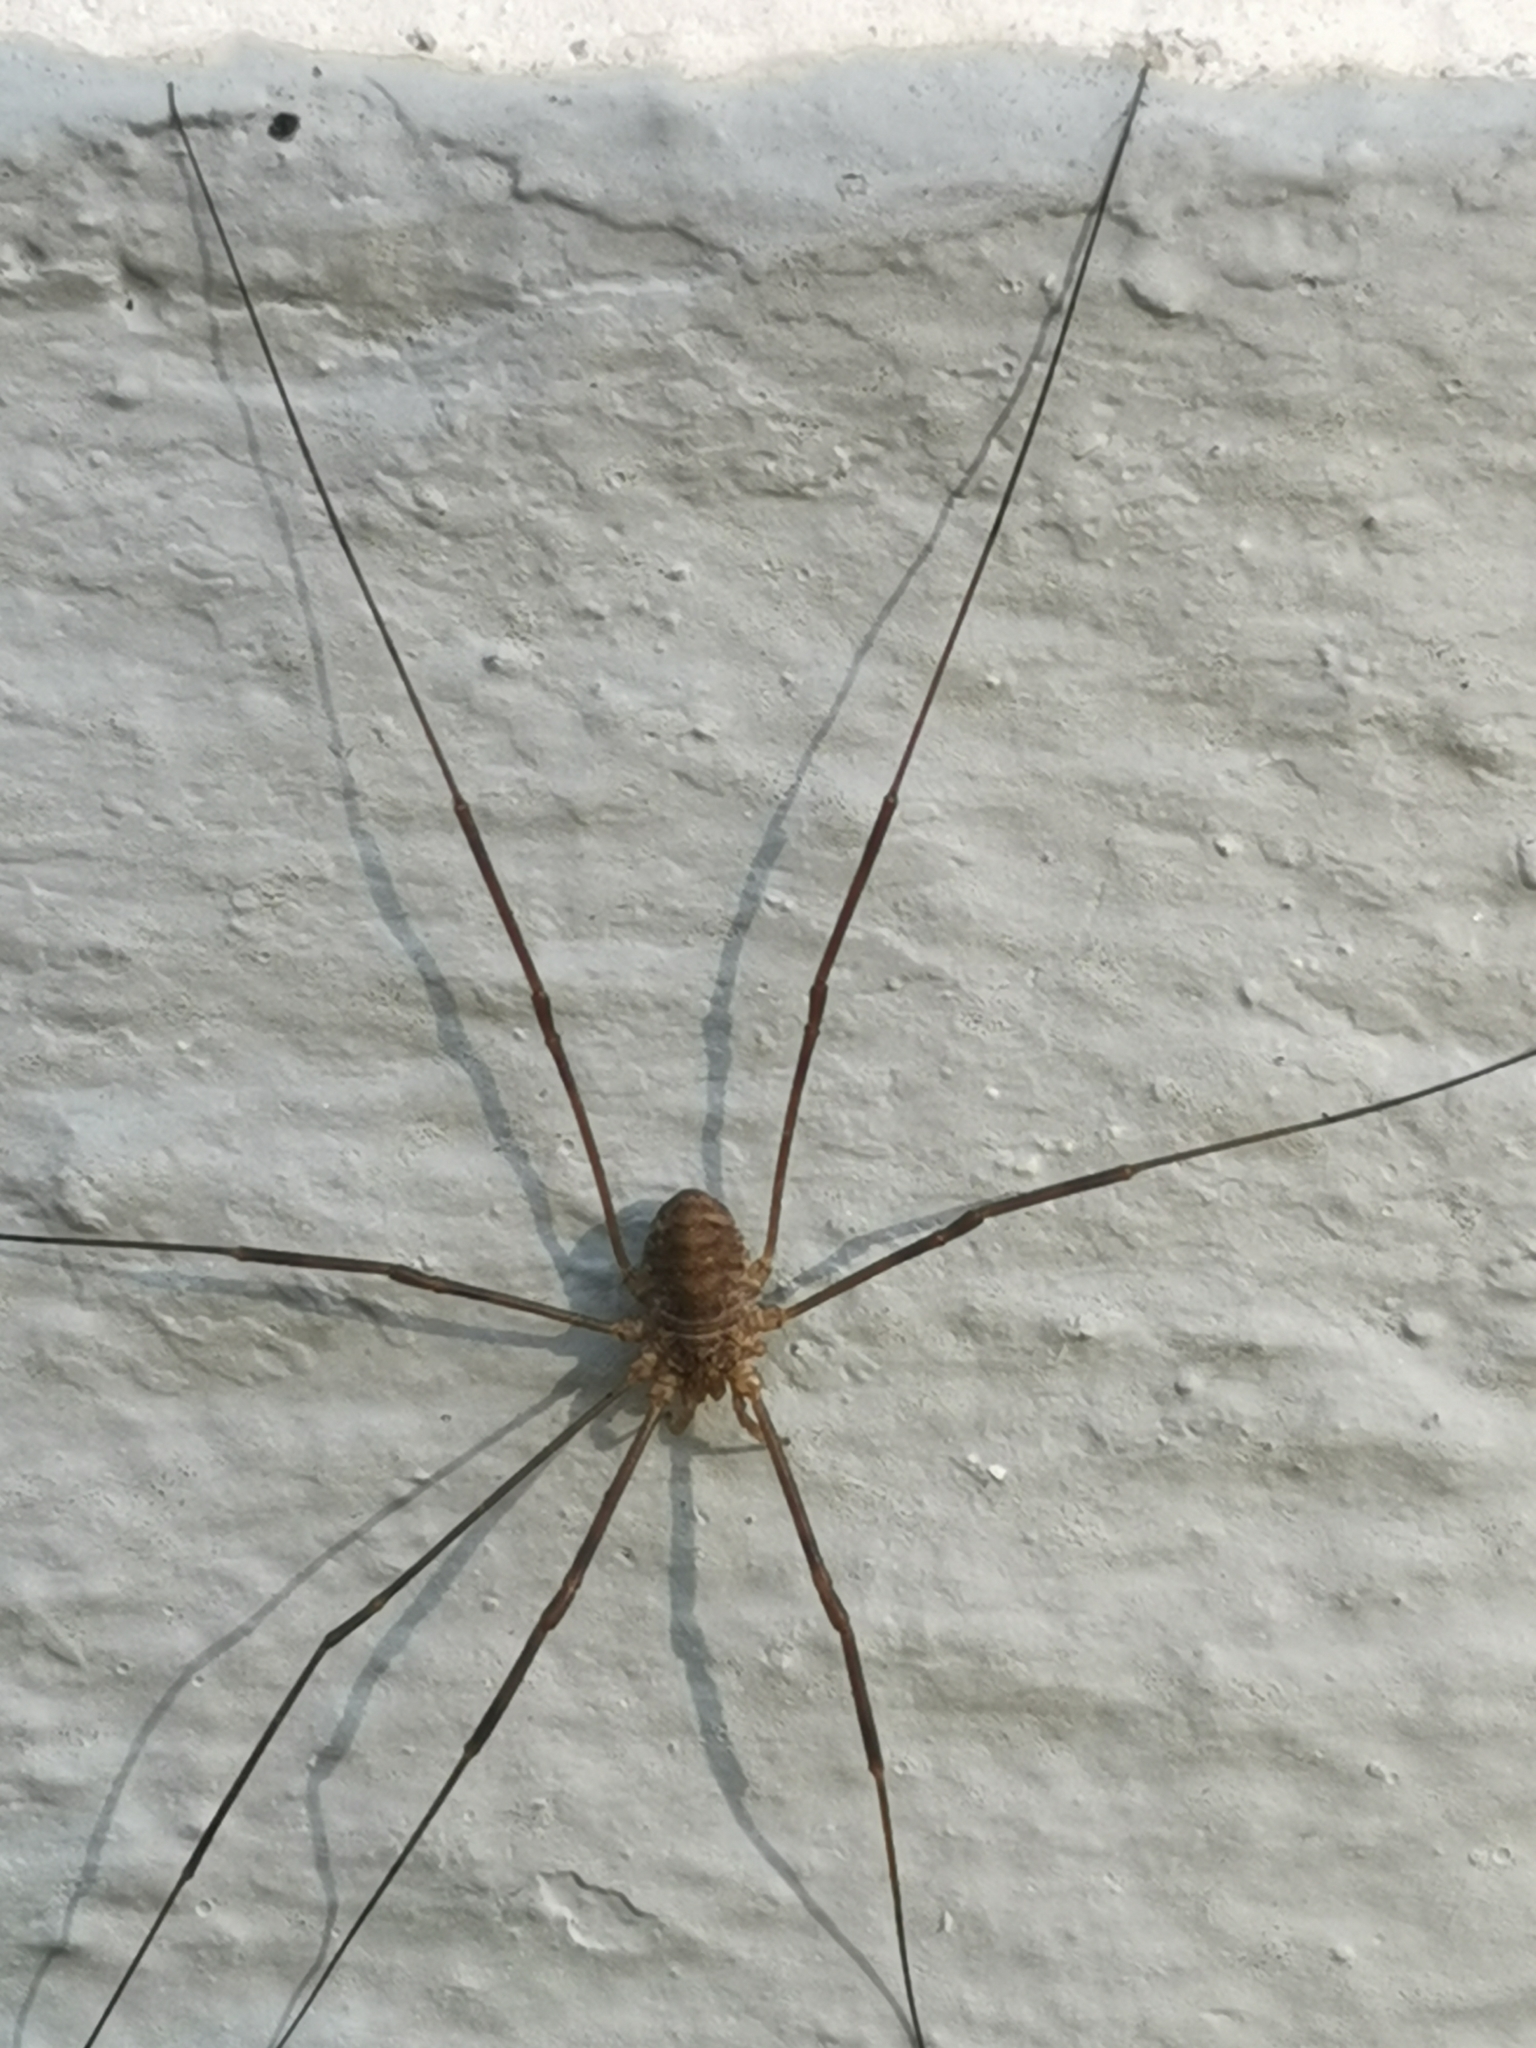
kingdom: Animalia
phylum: Arthropoda
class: Arachnida
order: Opiliones
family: Phalangiidae
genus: Opilio
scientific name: Opilio parietinus
